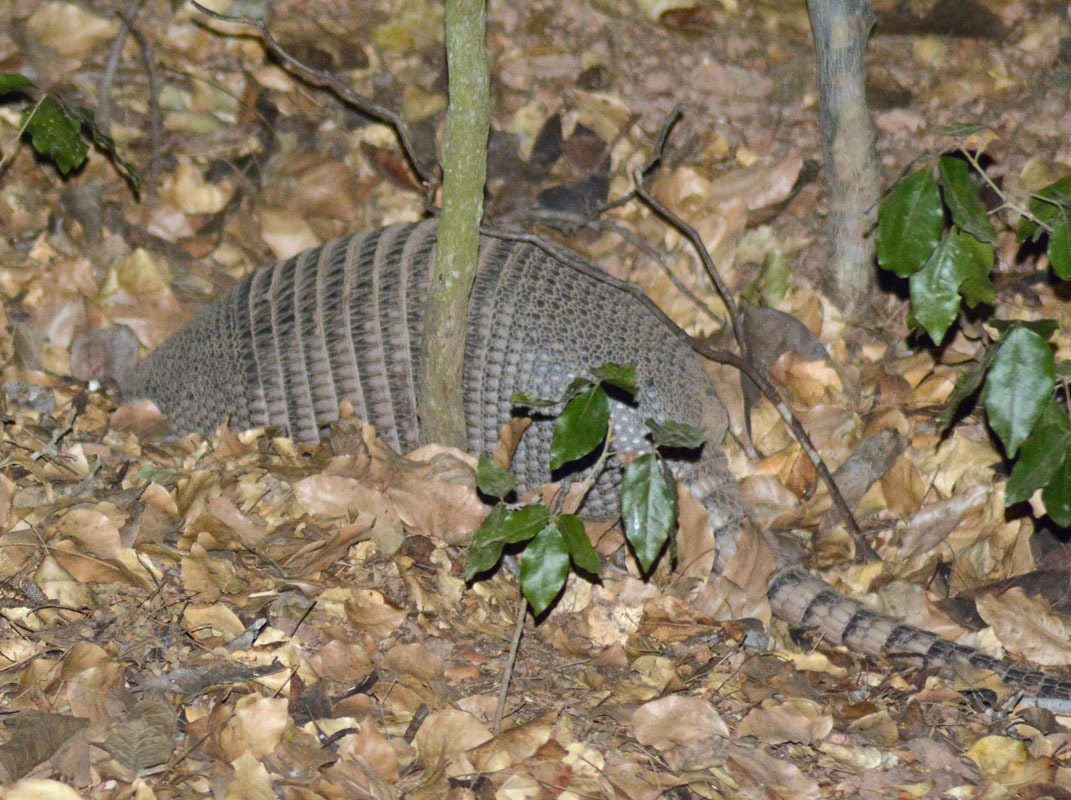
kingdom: Animalia
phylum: Chordata
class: Mammalia
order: Cingulata
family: Dasypodidae
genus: Dasypus
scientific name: Dasypus novemcinctus
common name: Nine-banded armadillo
